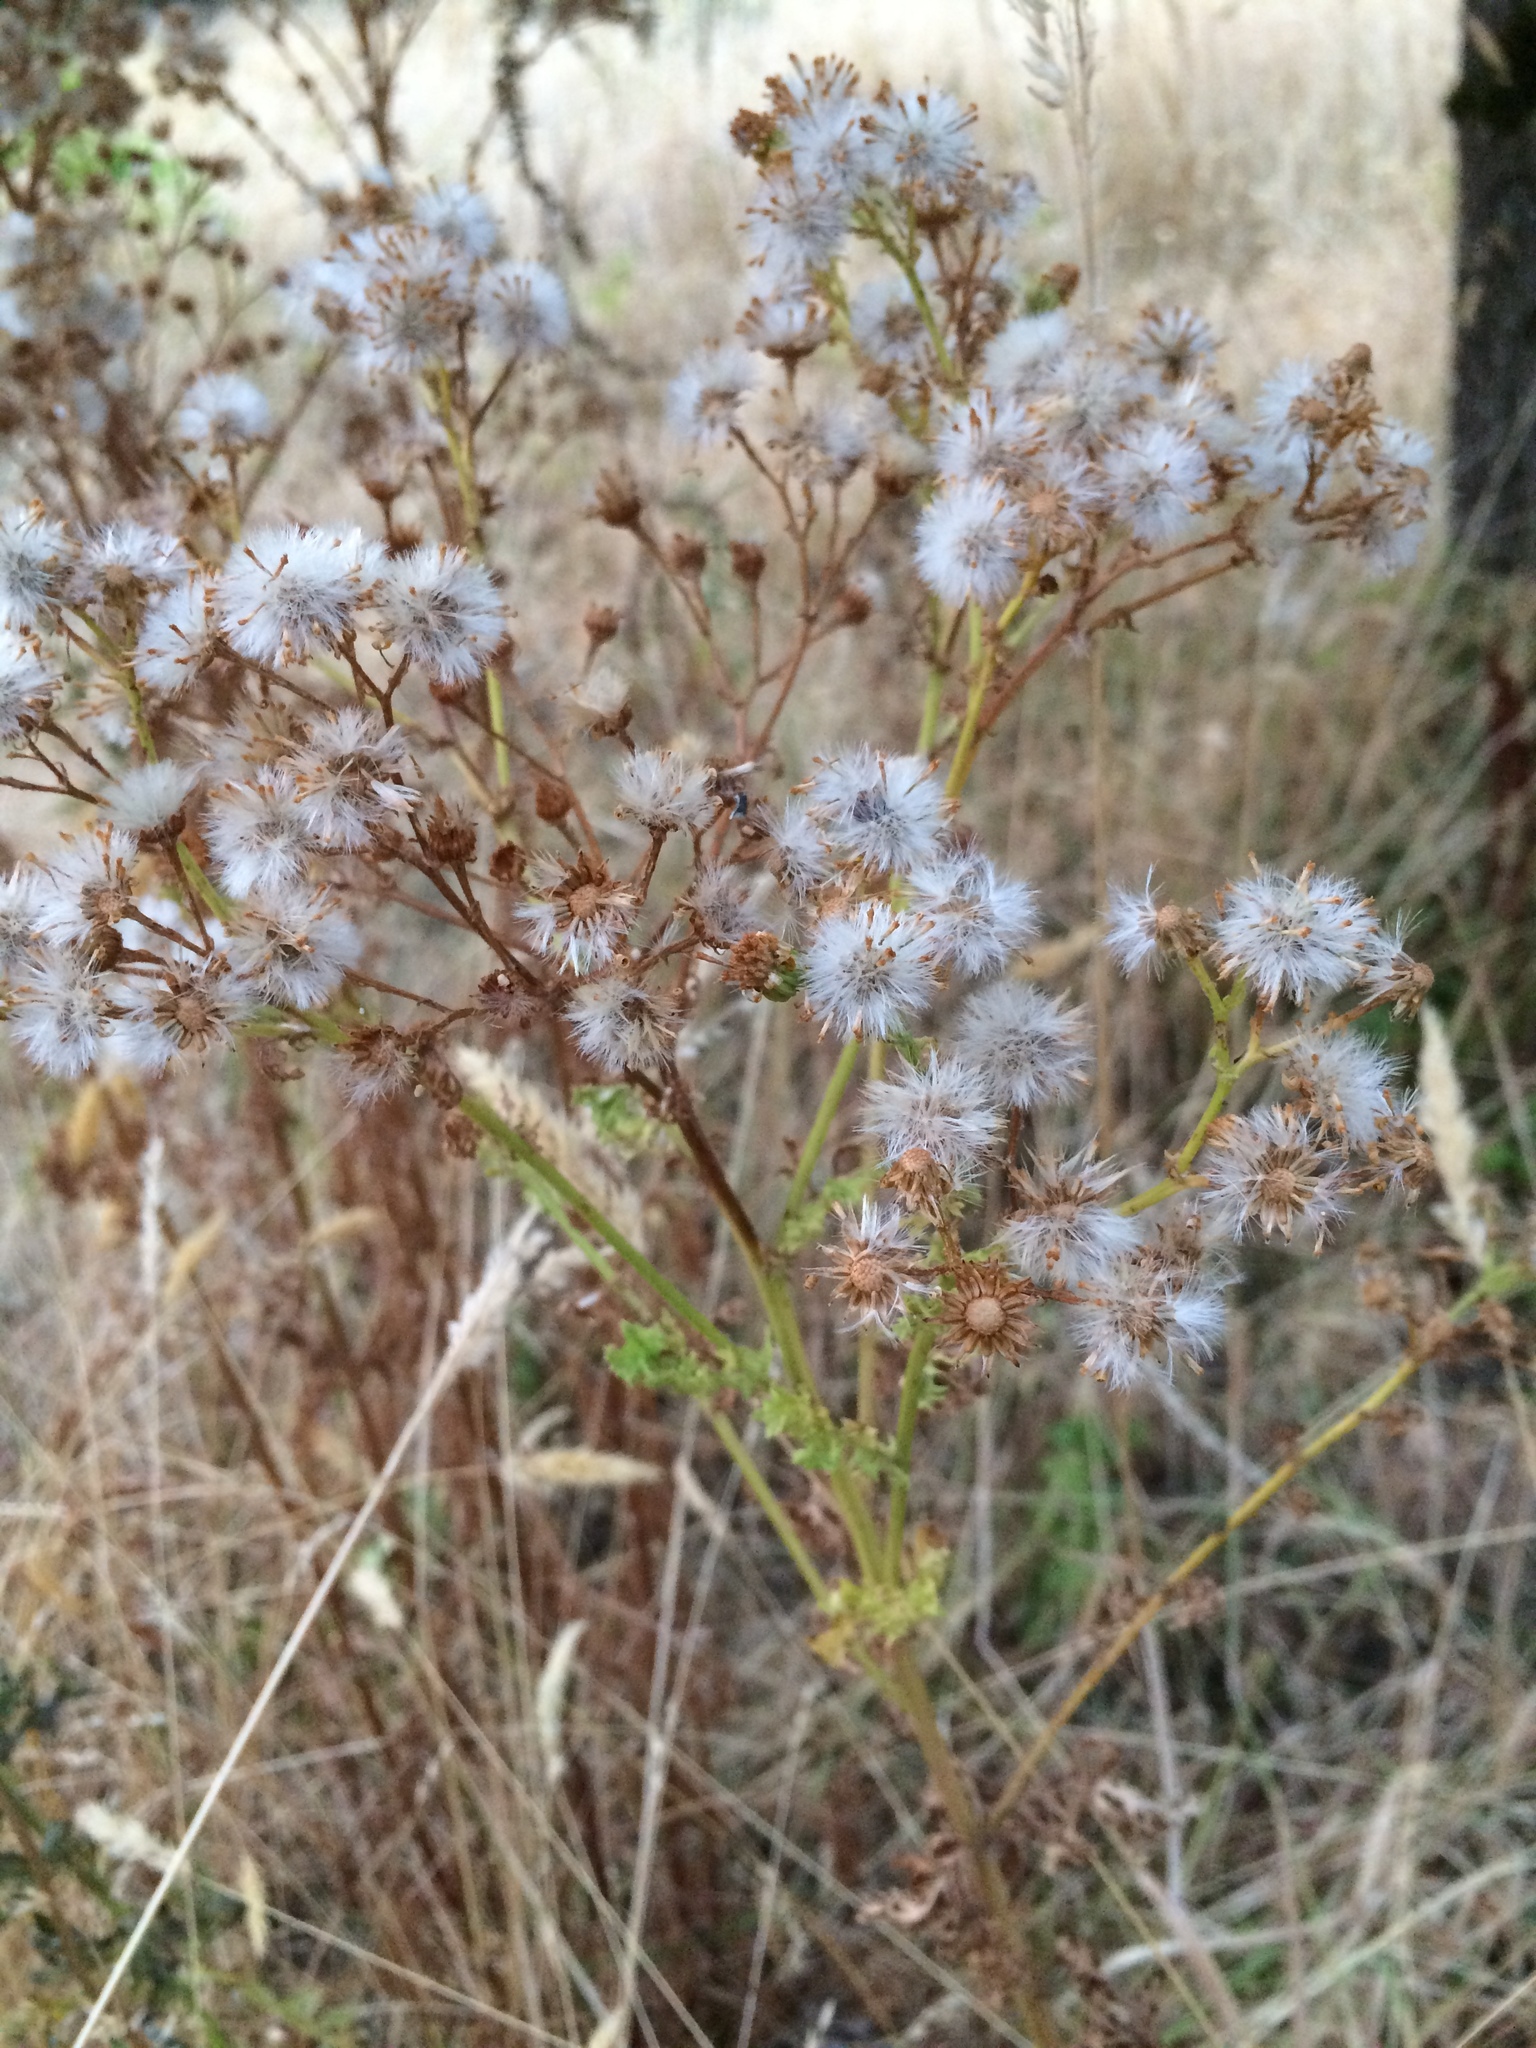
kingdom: Plantae
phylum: Tracheophyta
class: Magnoliopsida
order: Asterales
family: Asteraceae
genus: Jacobaea
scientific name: Jacobaea vulgaris
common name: Stinking willie
